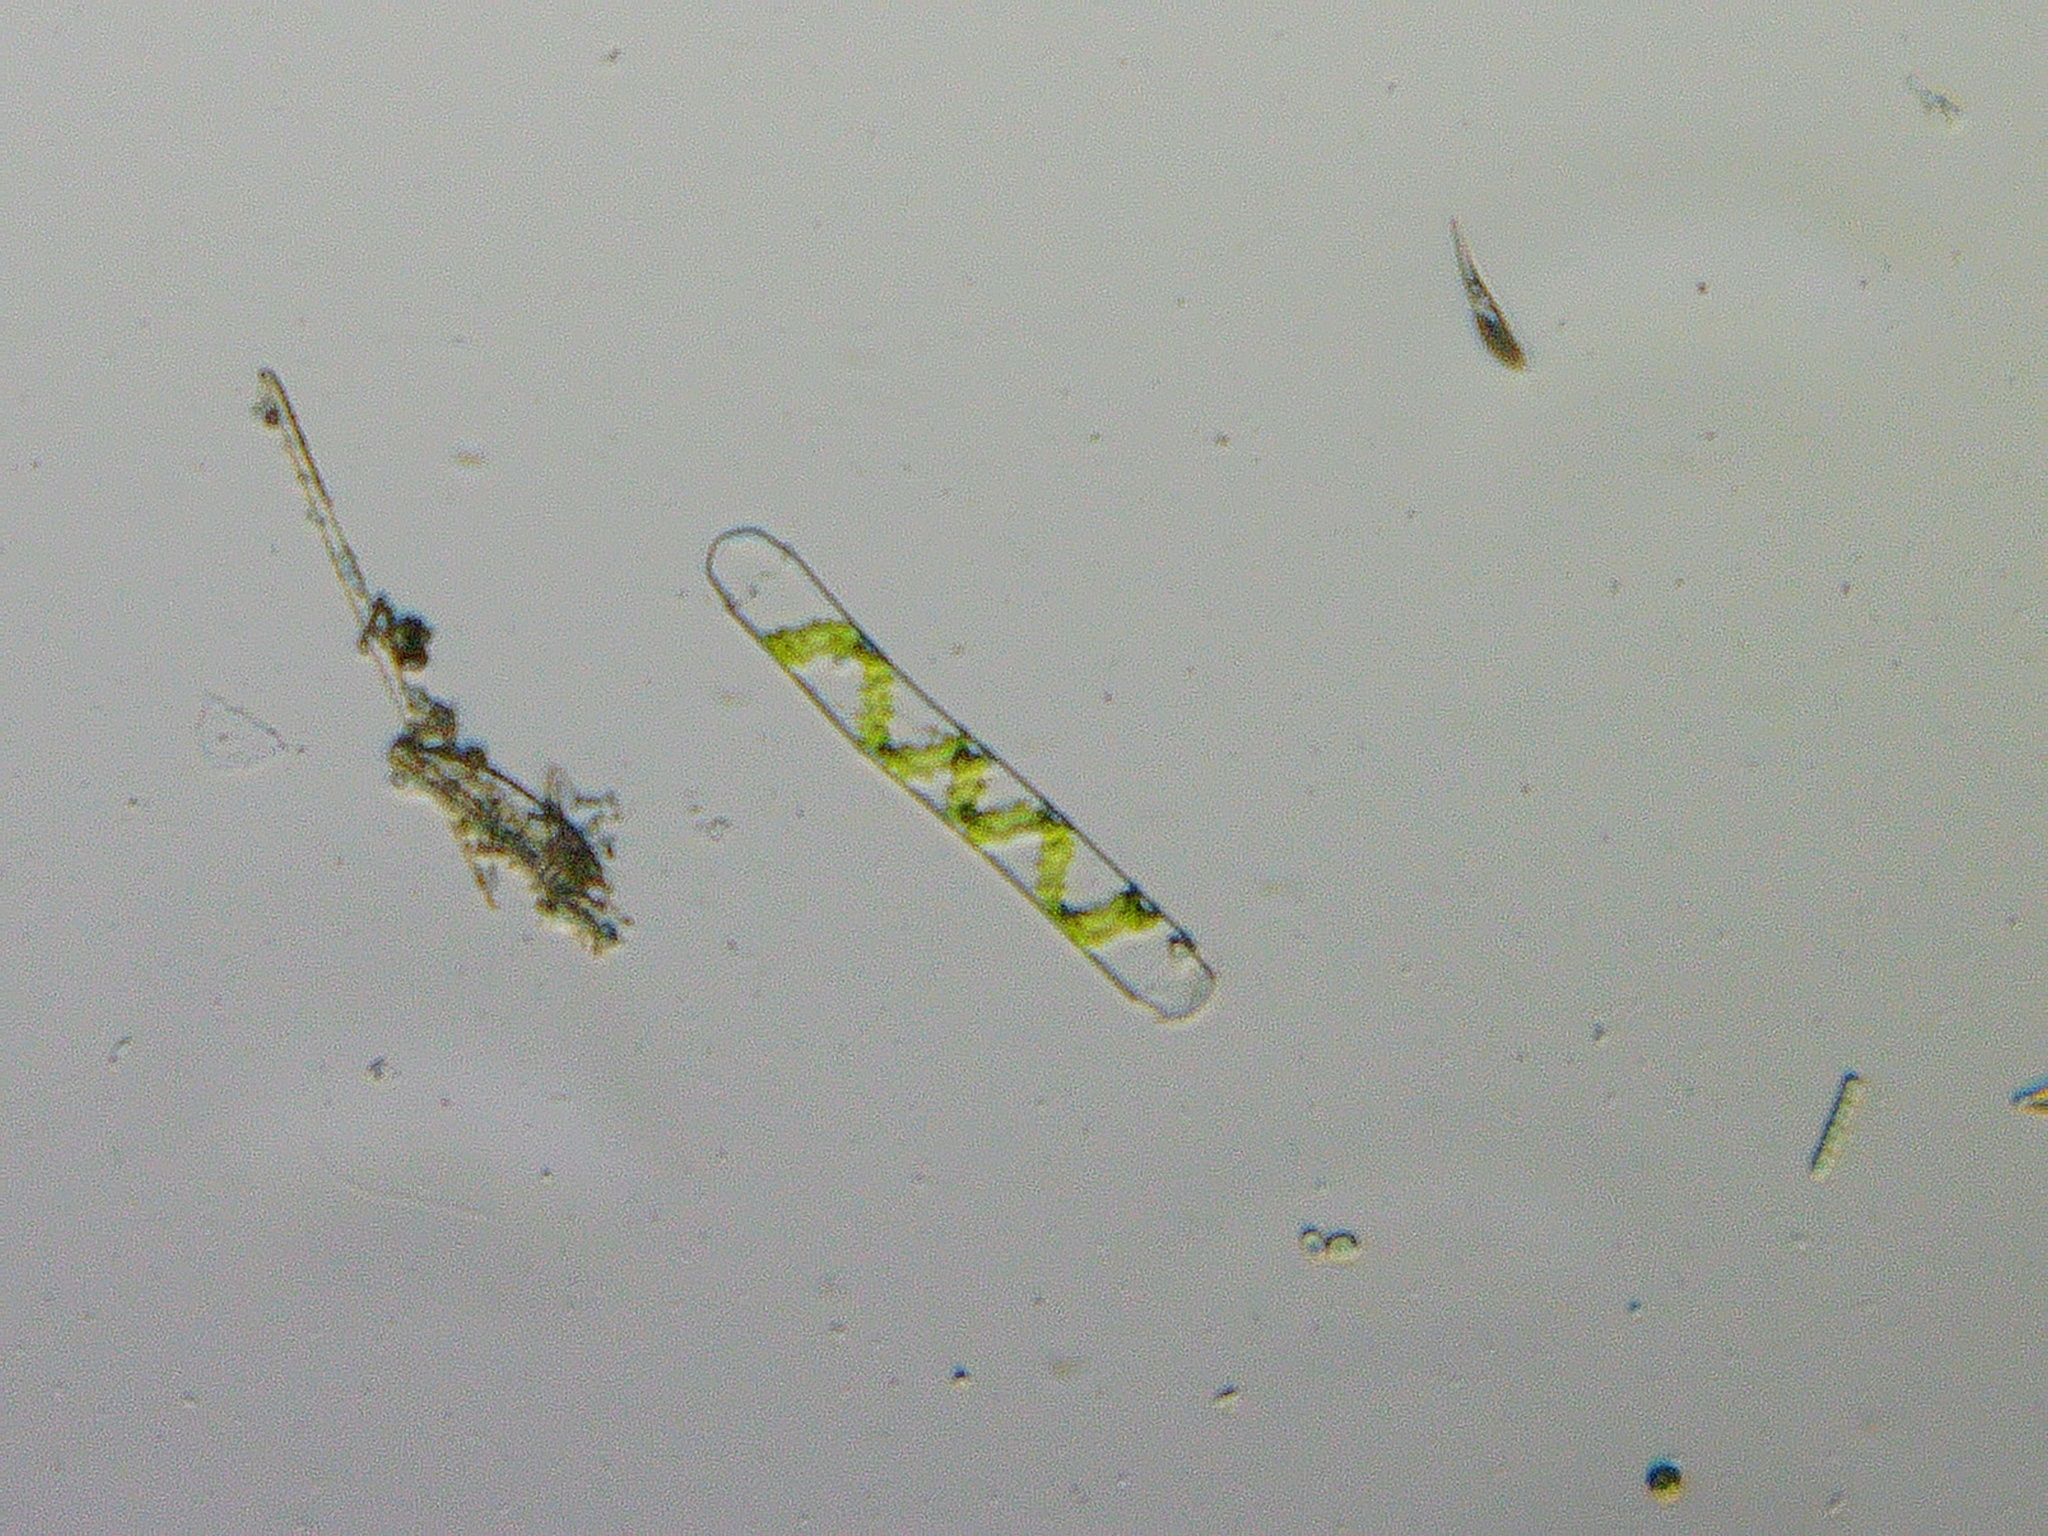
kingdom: Plantae
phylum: Charophyta
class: Zygnematophyceae
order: Zygnematales
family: Zygnemataceae
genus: Spirogyra
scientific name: Spirogyra
